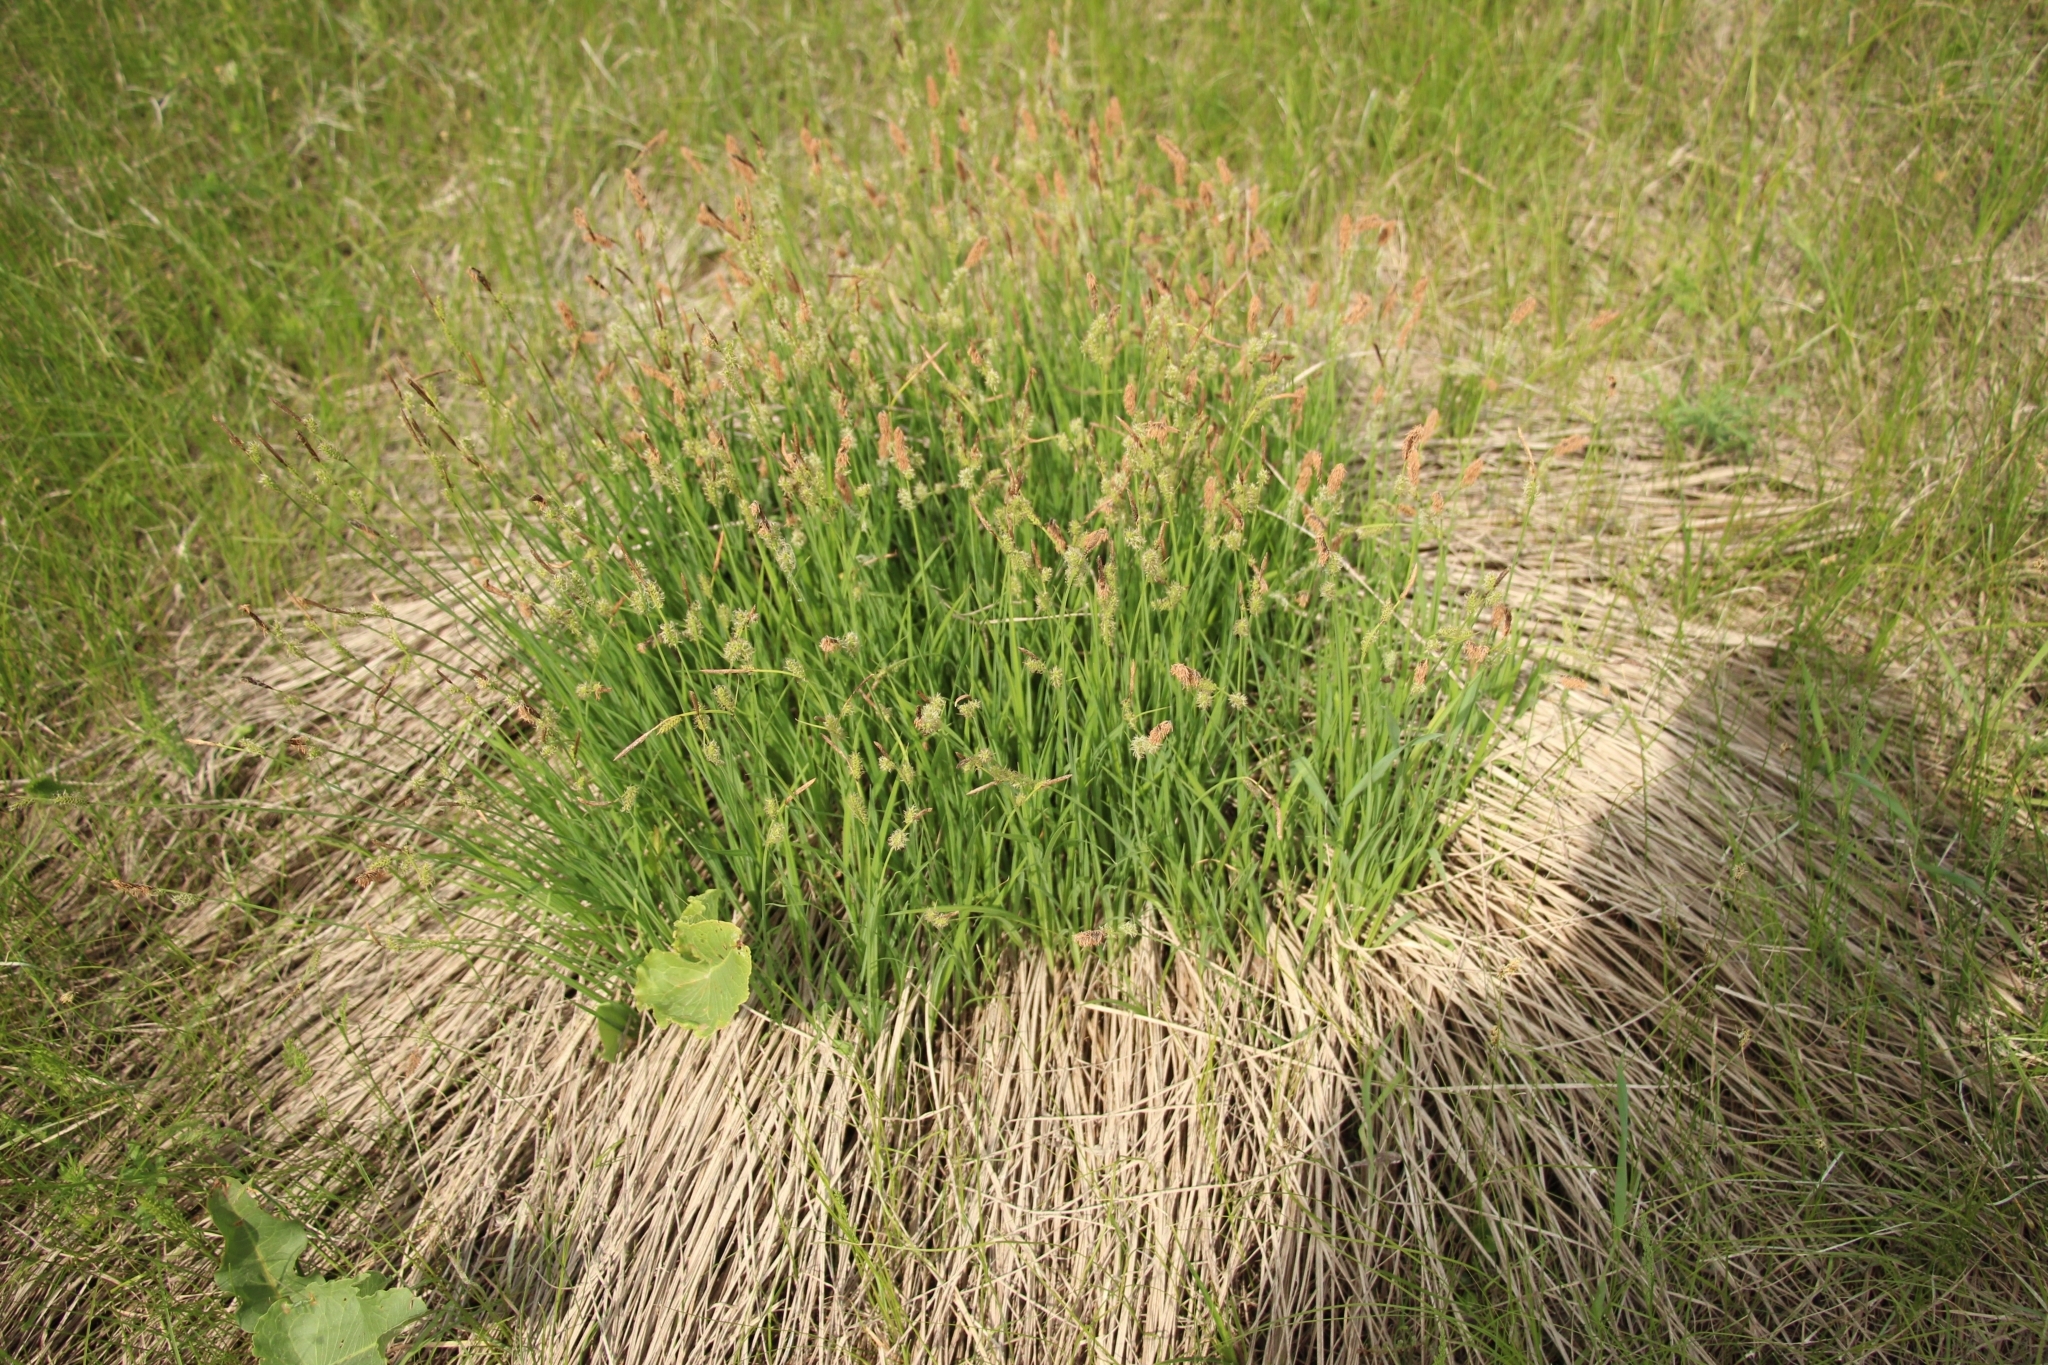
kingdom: Plantae
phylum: Tracheophyta
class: Liliopsida
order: Poales
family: Cyperaceae
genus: Carex
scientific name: Carex cespitosa
